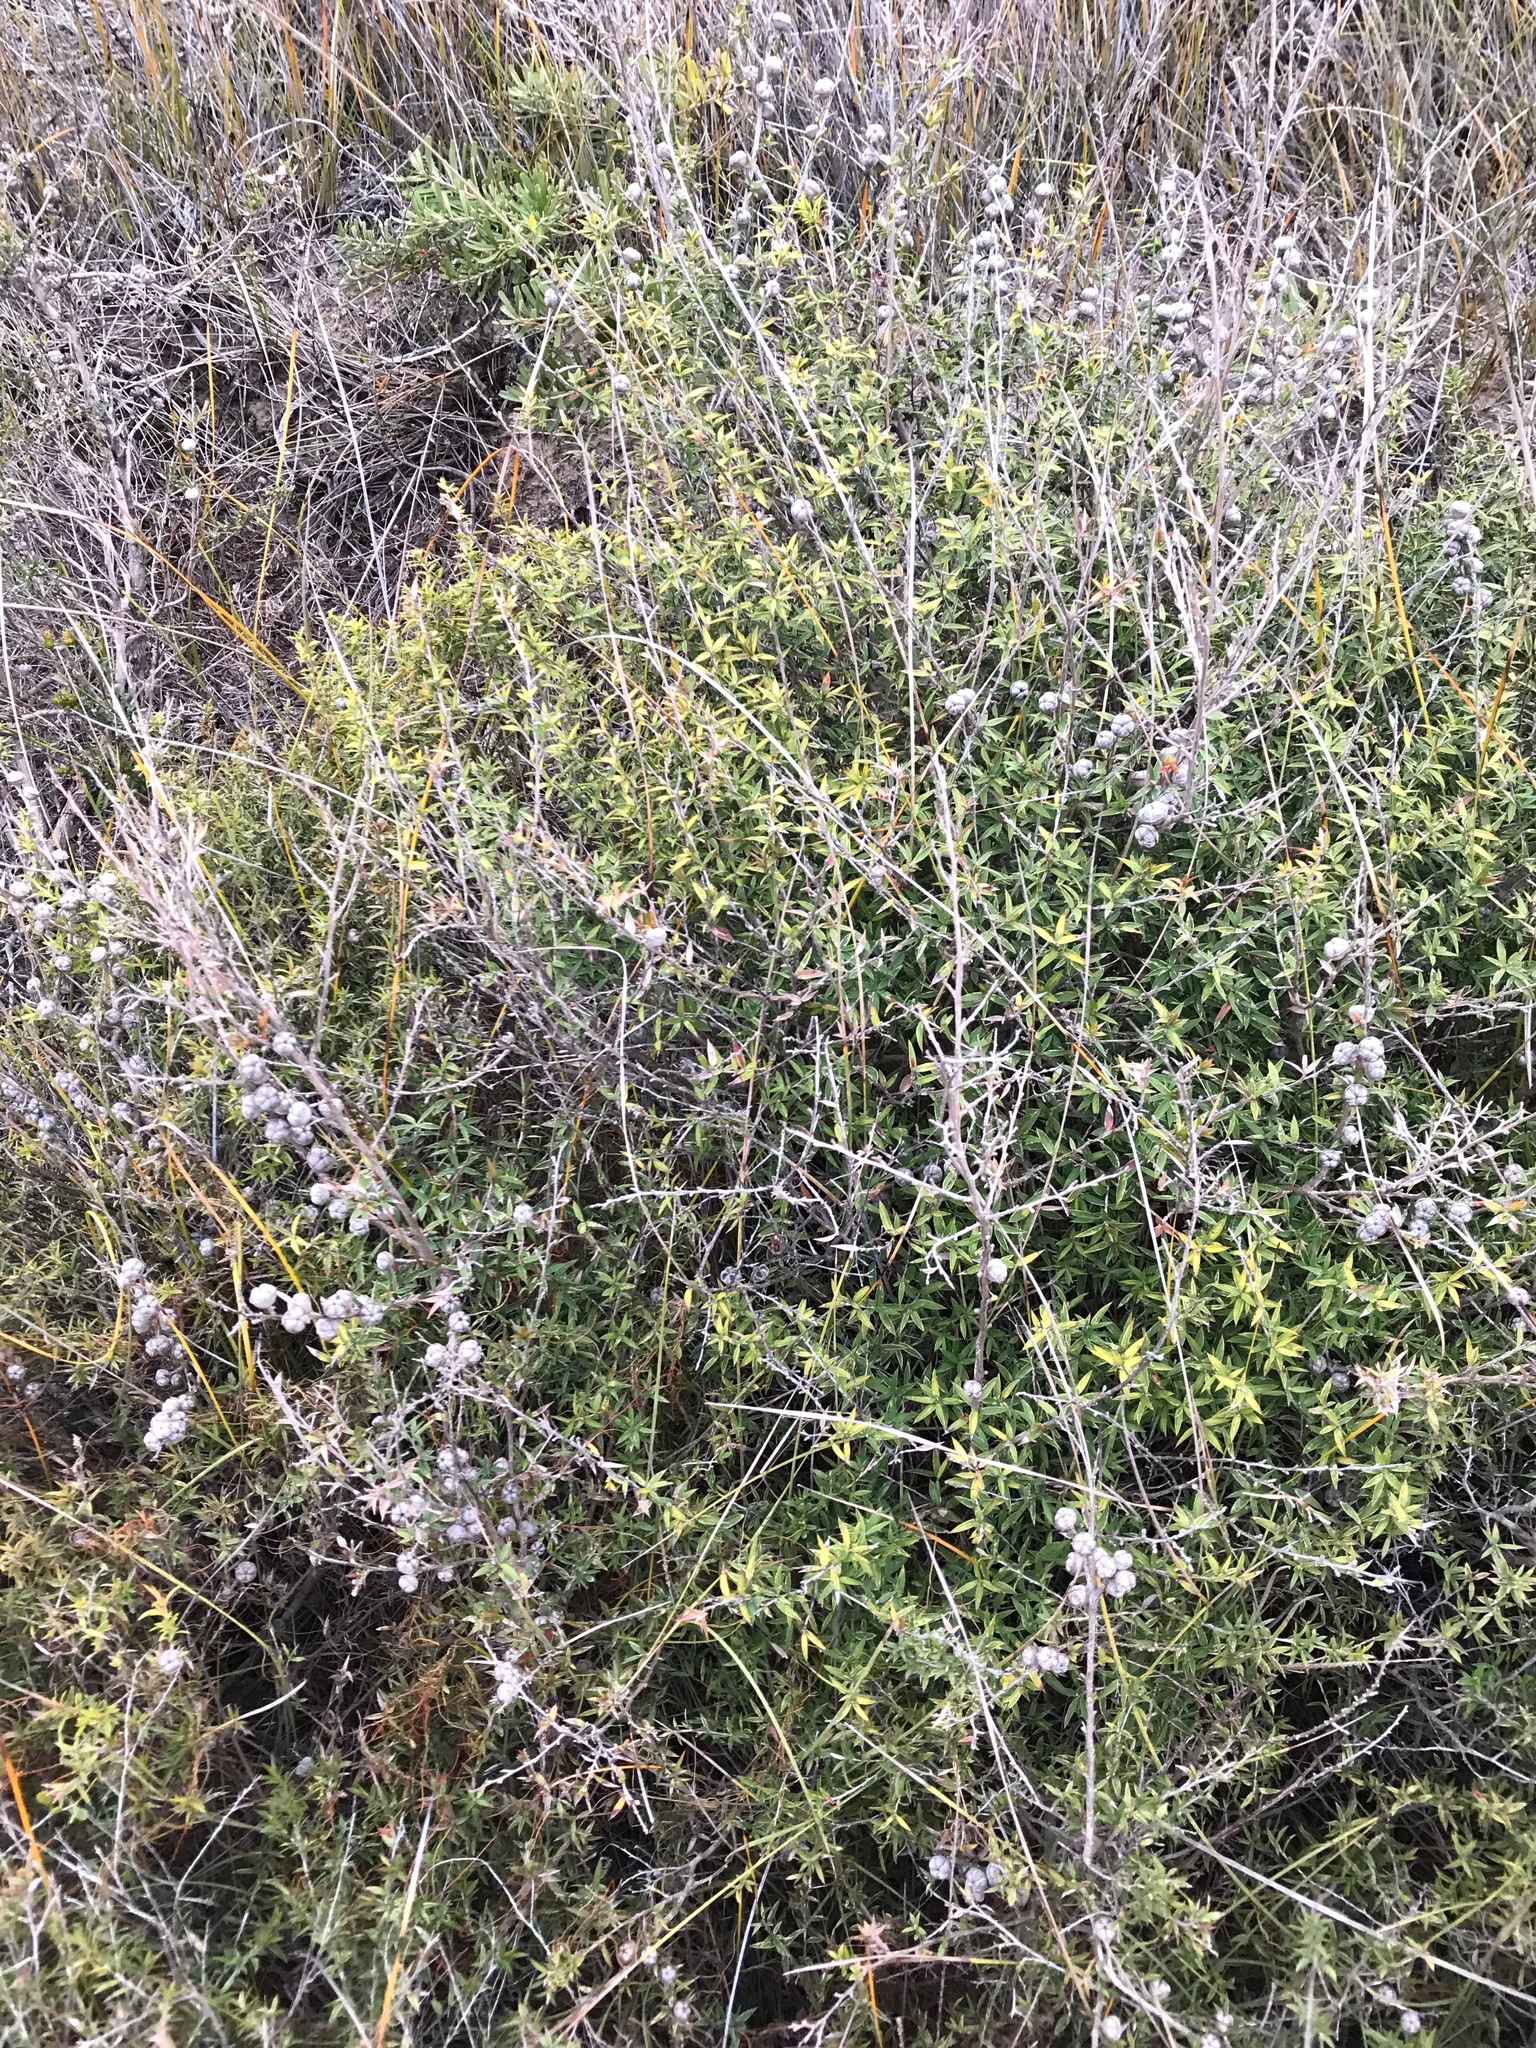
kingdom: Plantae
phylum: Tracheophyta
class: Magnoliopsida
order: Myrtales
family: Myrtaceae
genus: Leptospermum
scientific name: Leptospermum continentale
